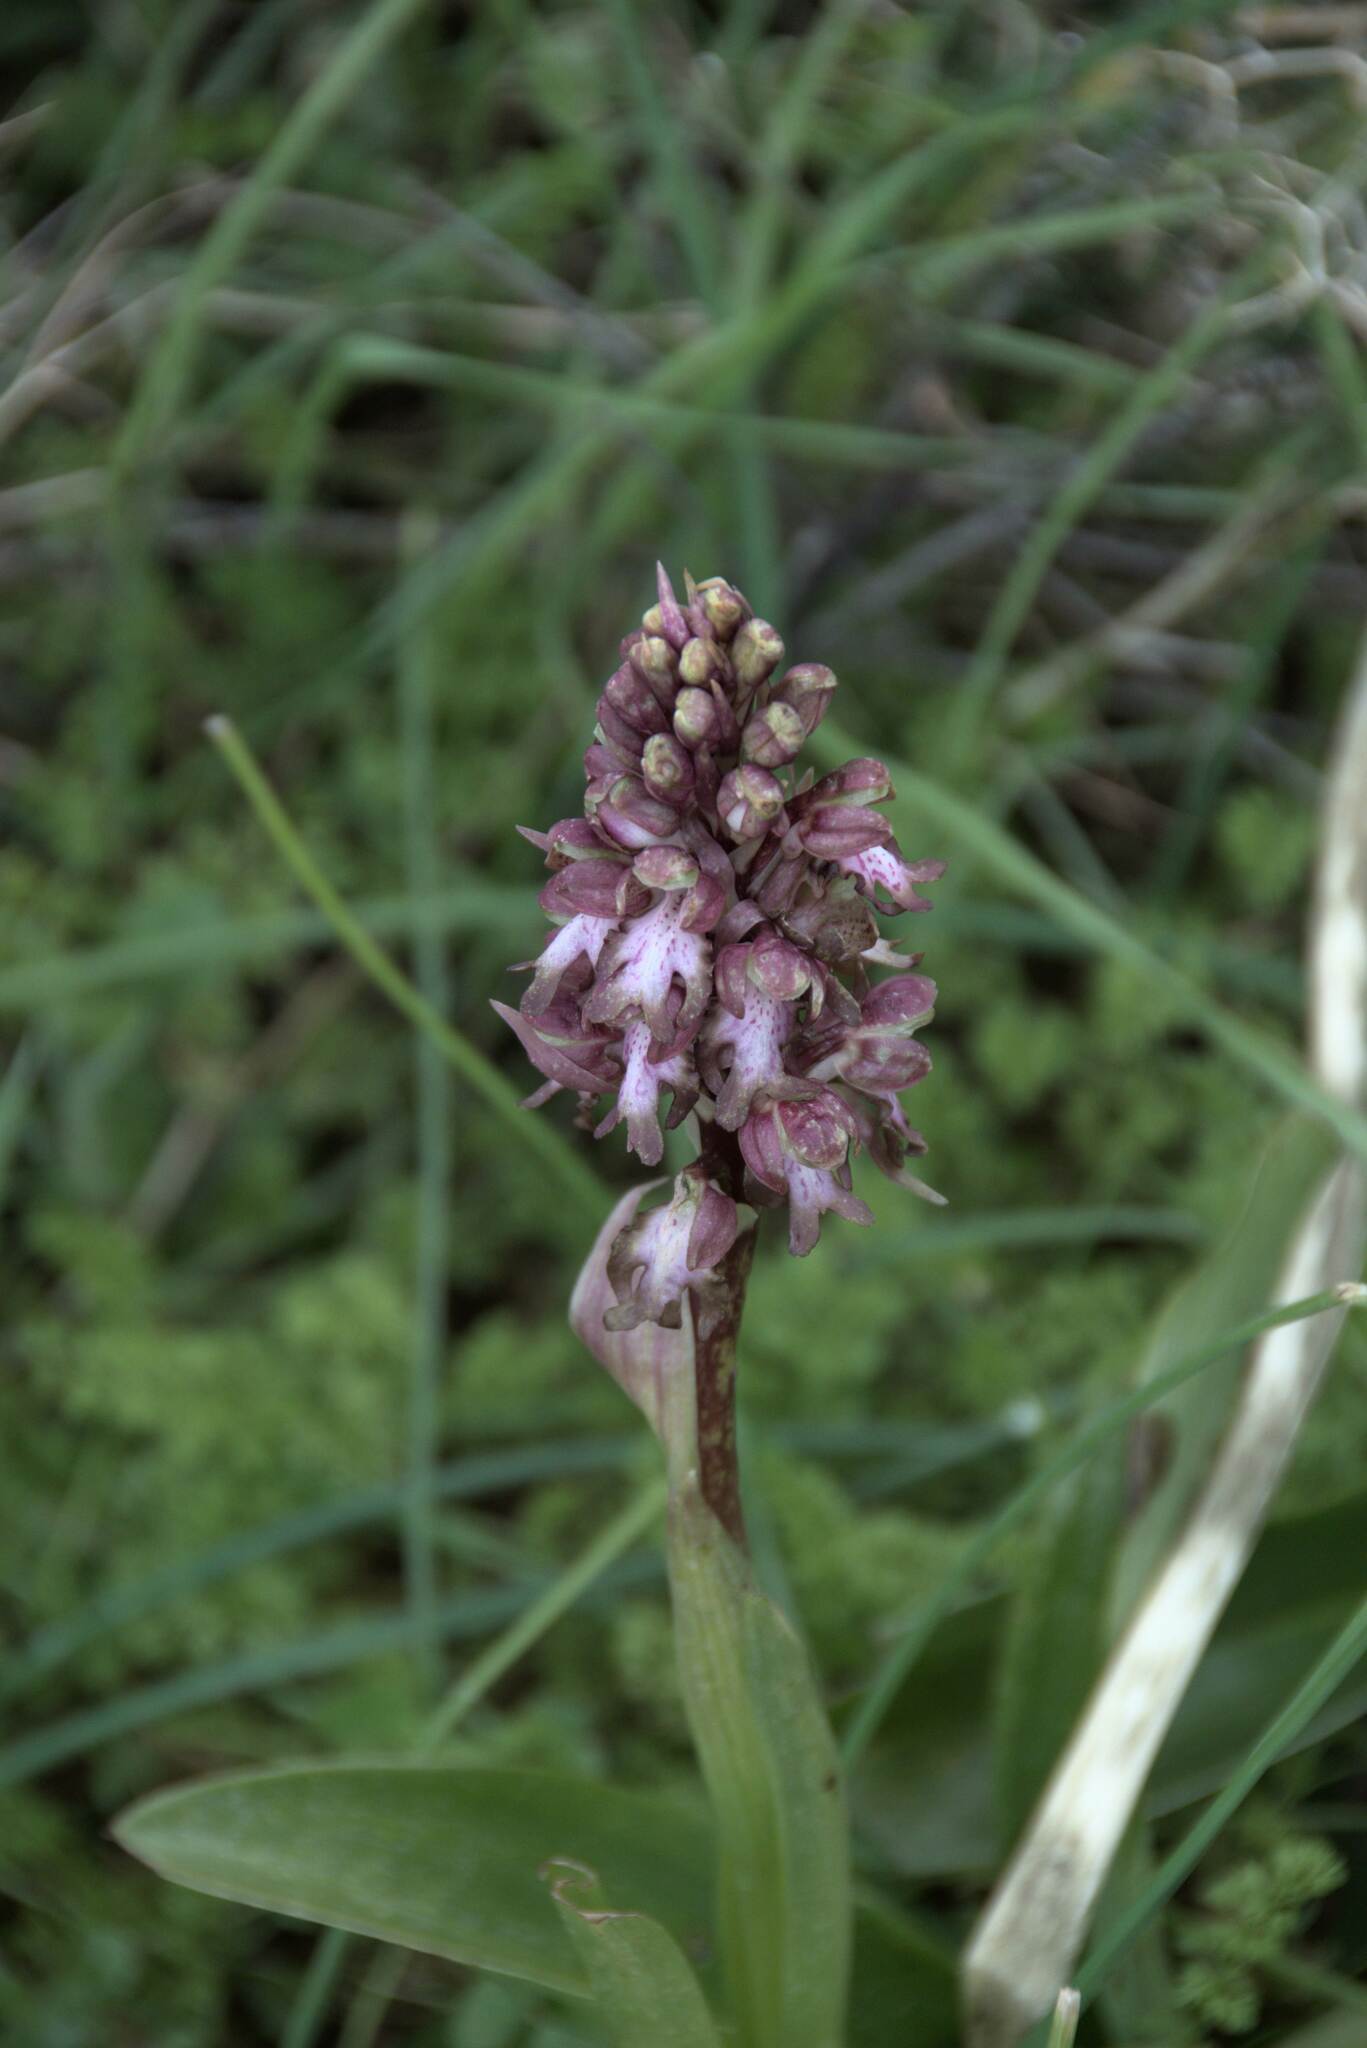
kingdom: Plantae
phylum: Tracheophyta
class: Liliopsida
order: Asparagales
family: Orchidaceae
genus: Himantoglossum
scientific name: Himantoglossum robertianum
